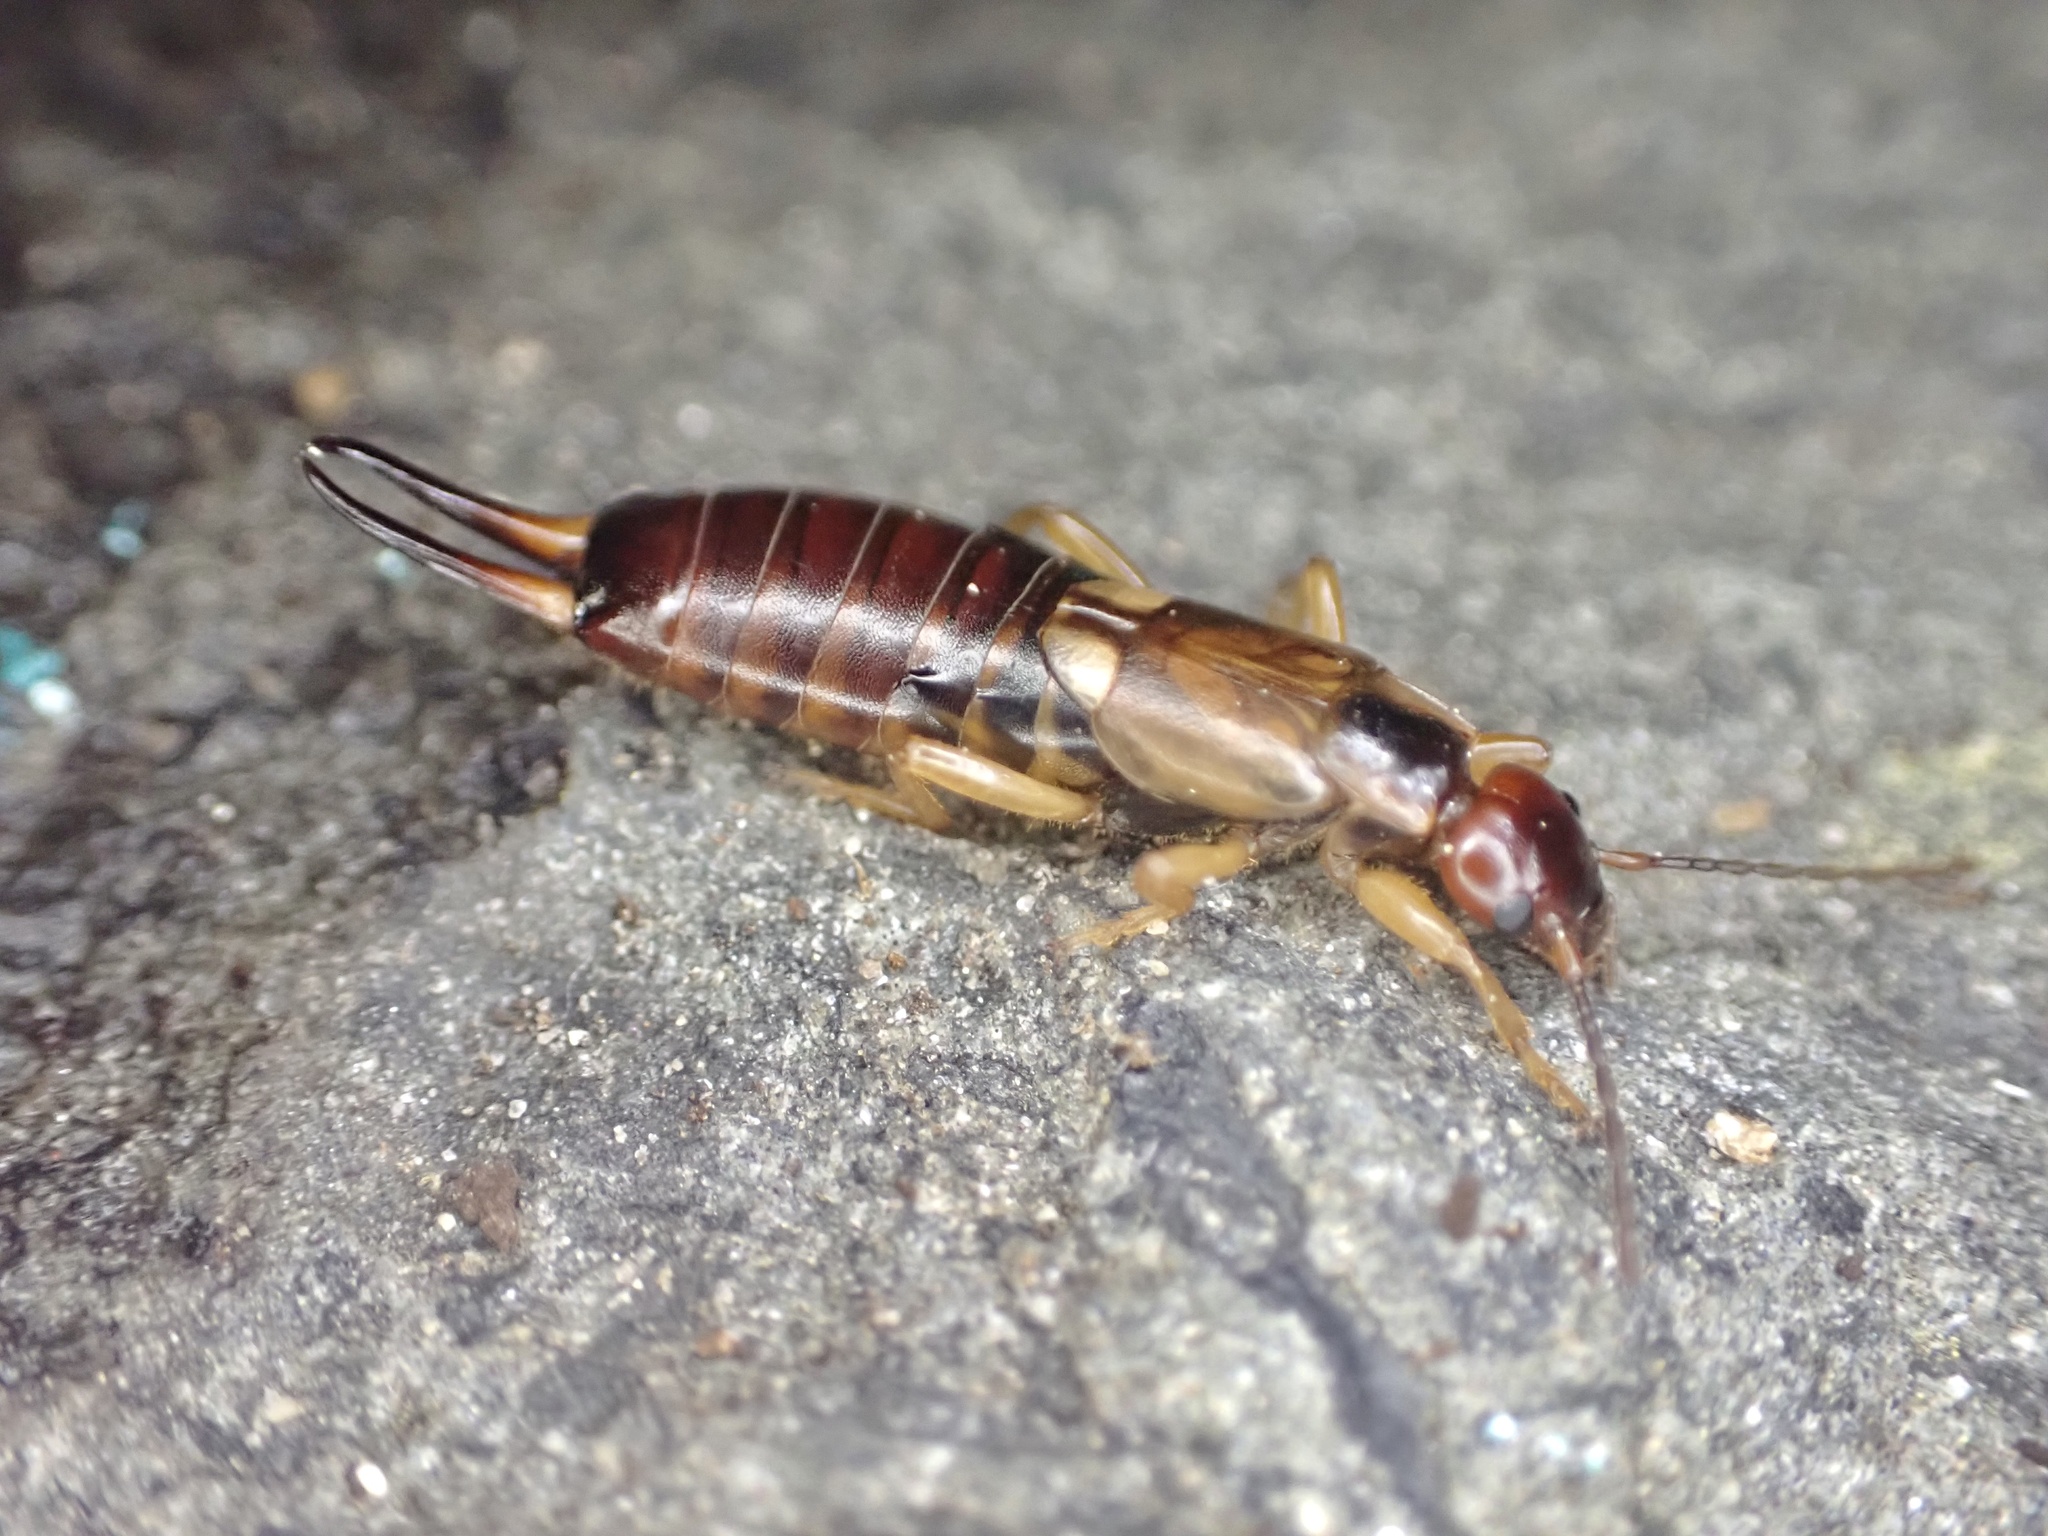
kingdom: Animalia
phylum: Arthropoda
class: Insecta
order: Dermaptera
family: Forficulidae
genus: Forficula
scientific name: Forficula
